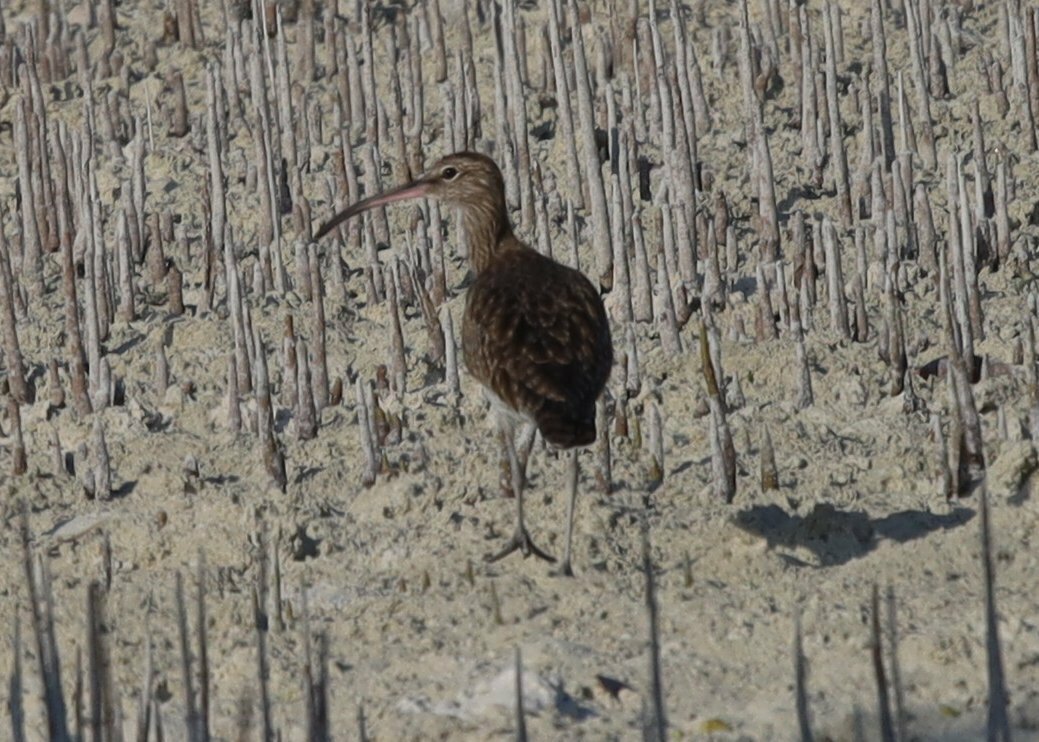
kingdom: Animalia
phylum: Chordata
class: Aves
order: Charadriiformes
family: Scolopacidae
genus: Numenius
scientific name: Numenius phaeopus
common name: Whimbrel
